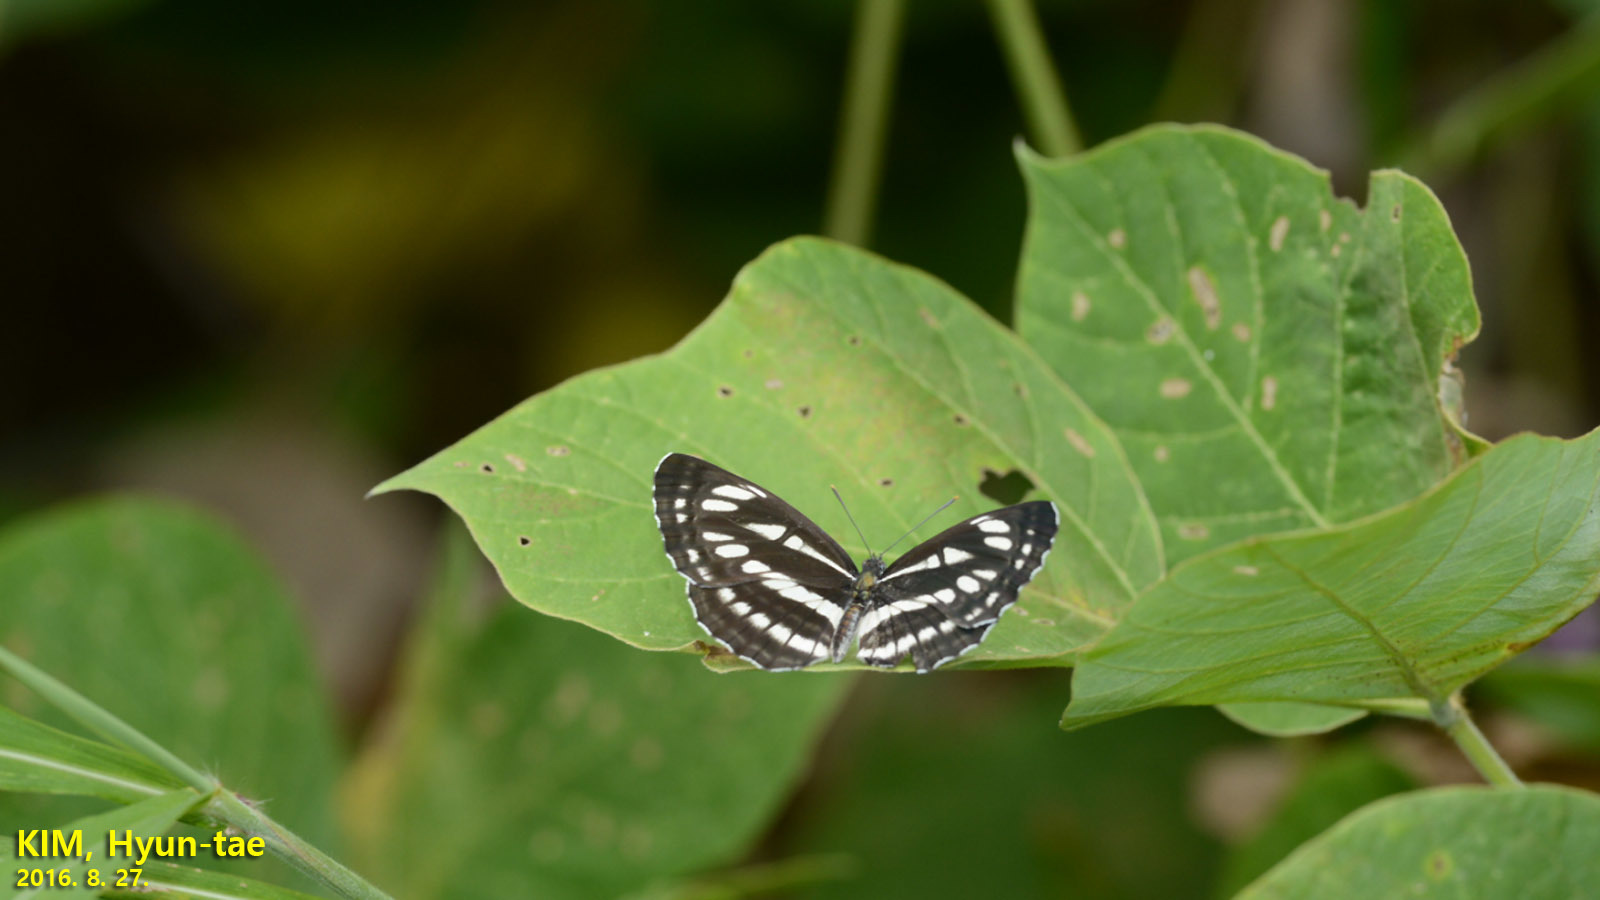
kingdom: Animalia
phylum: Arthropoda
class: Insecta
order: Lepidoptera
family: Nymphalidae
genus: Neptis
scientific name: Neptis sappho
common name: Common glider
